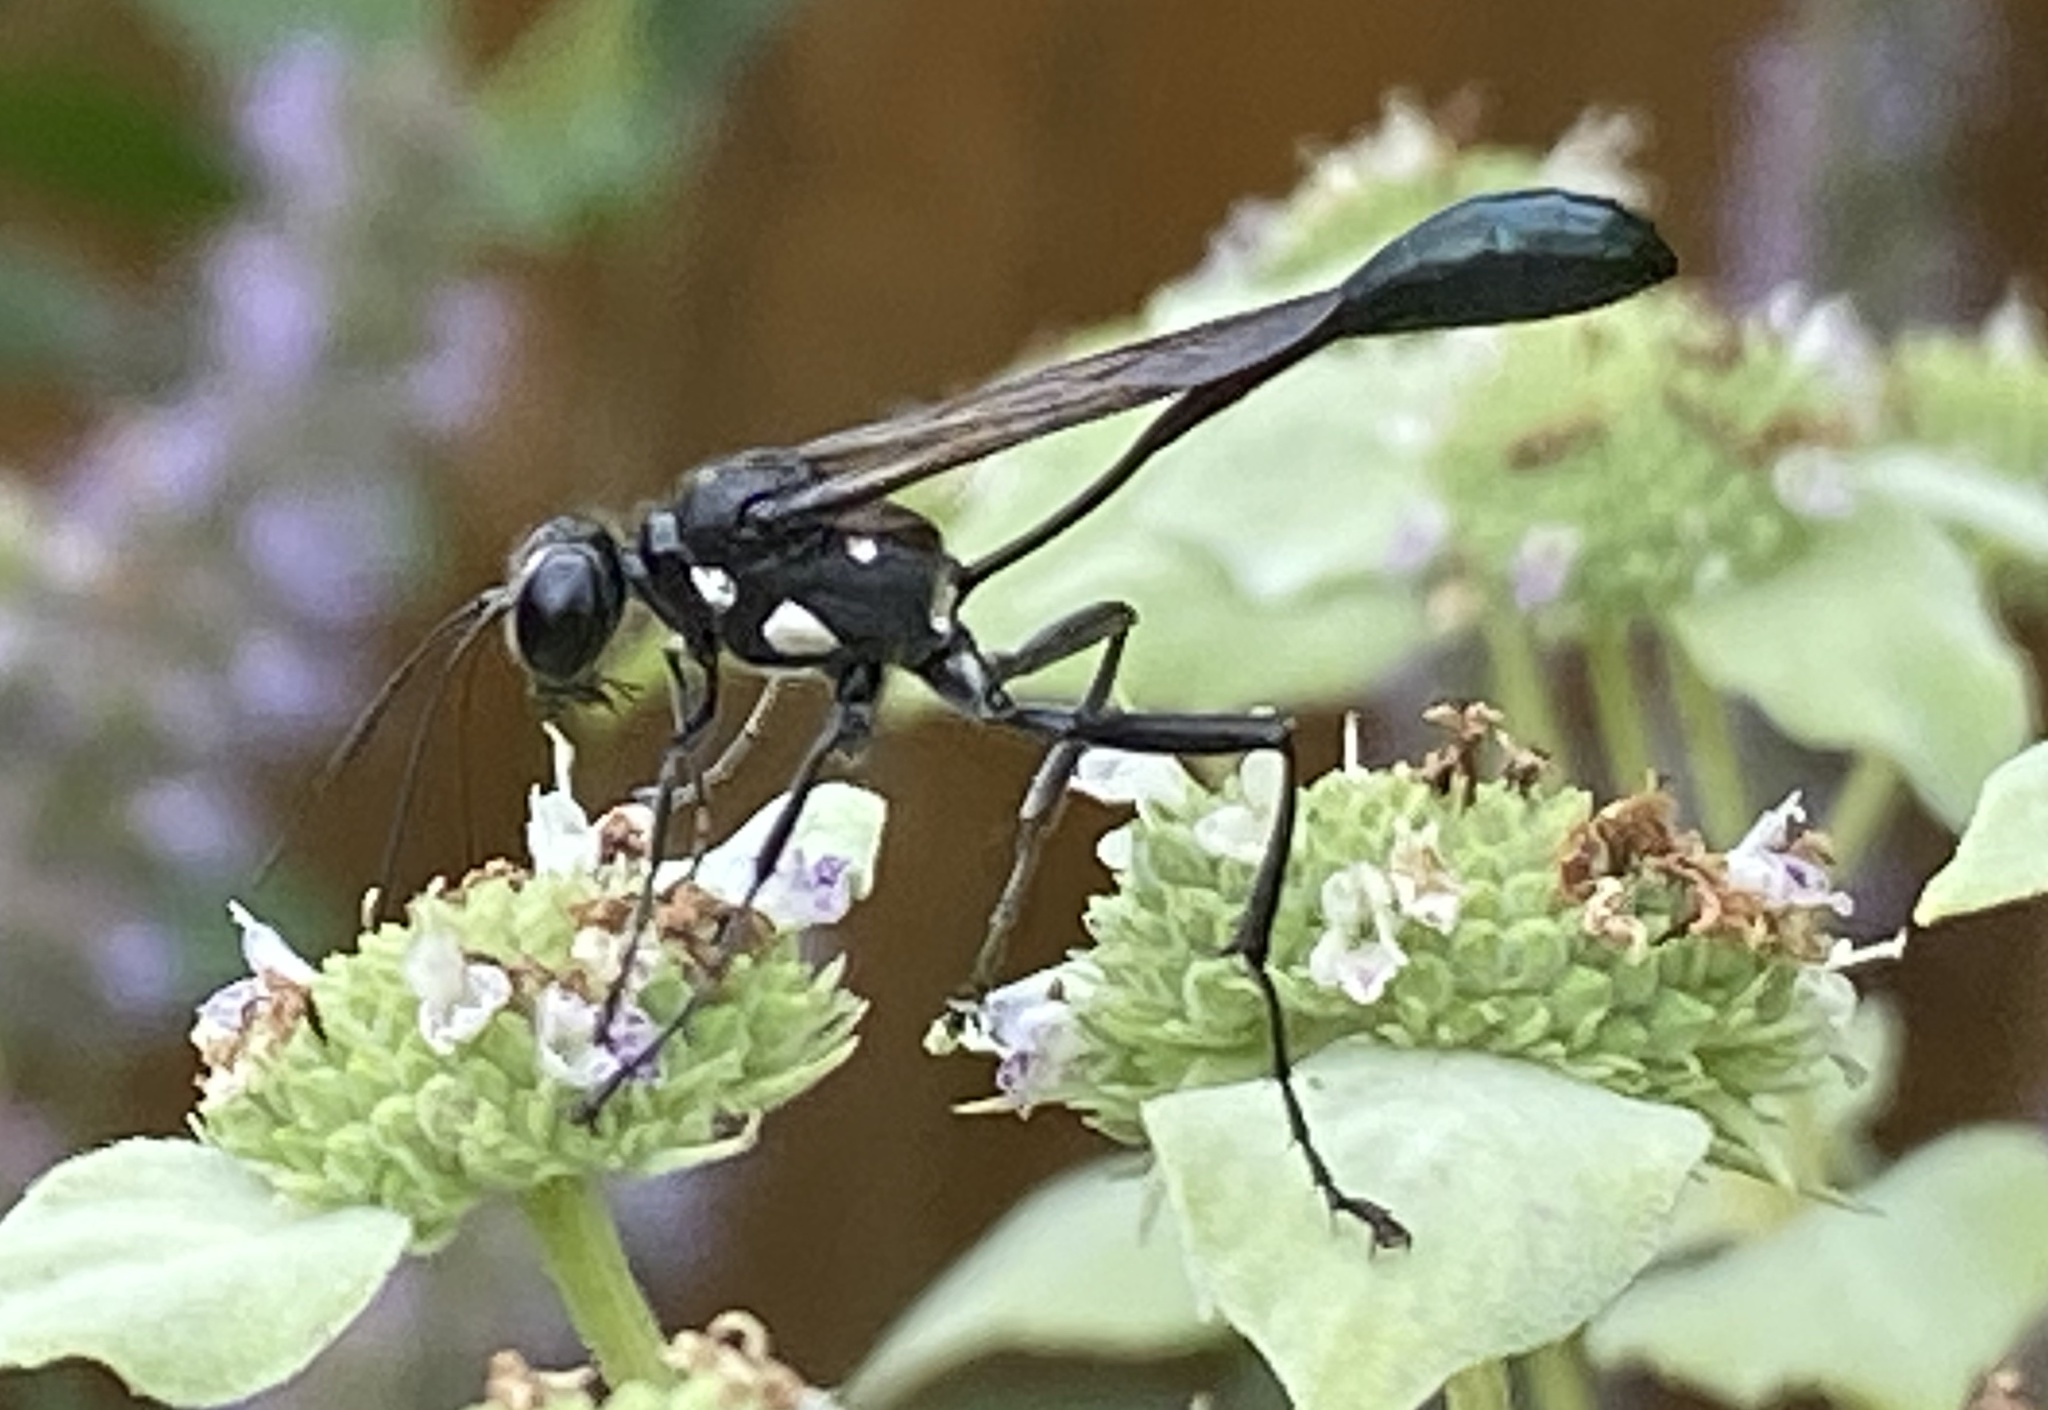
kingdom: Animalia
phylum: Arthropoda
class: Insecta
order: Hymenoptera
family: Sphecidae
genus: Eremnophila
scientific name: Eremnophila aureonotata
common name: Gold-marked thread-waisted wasp
